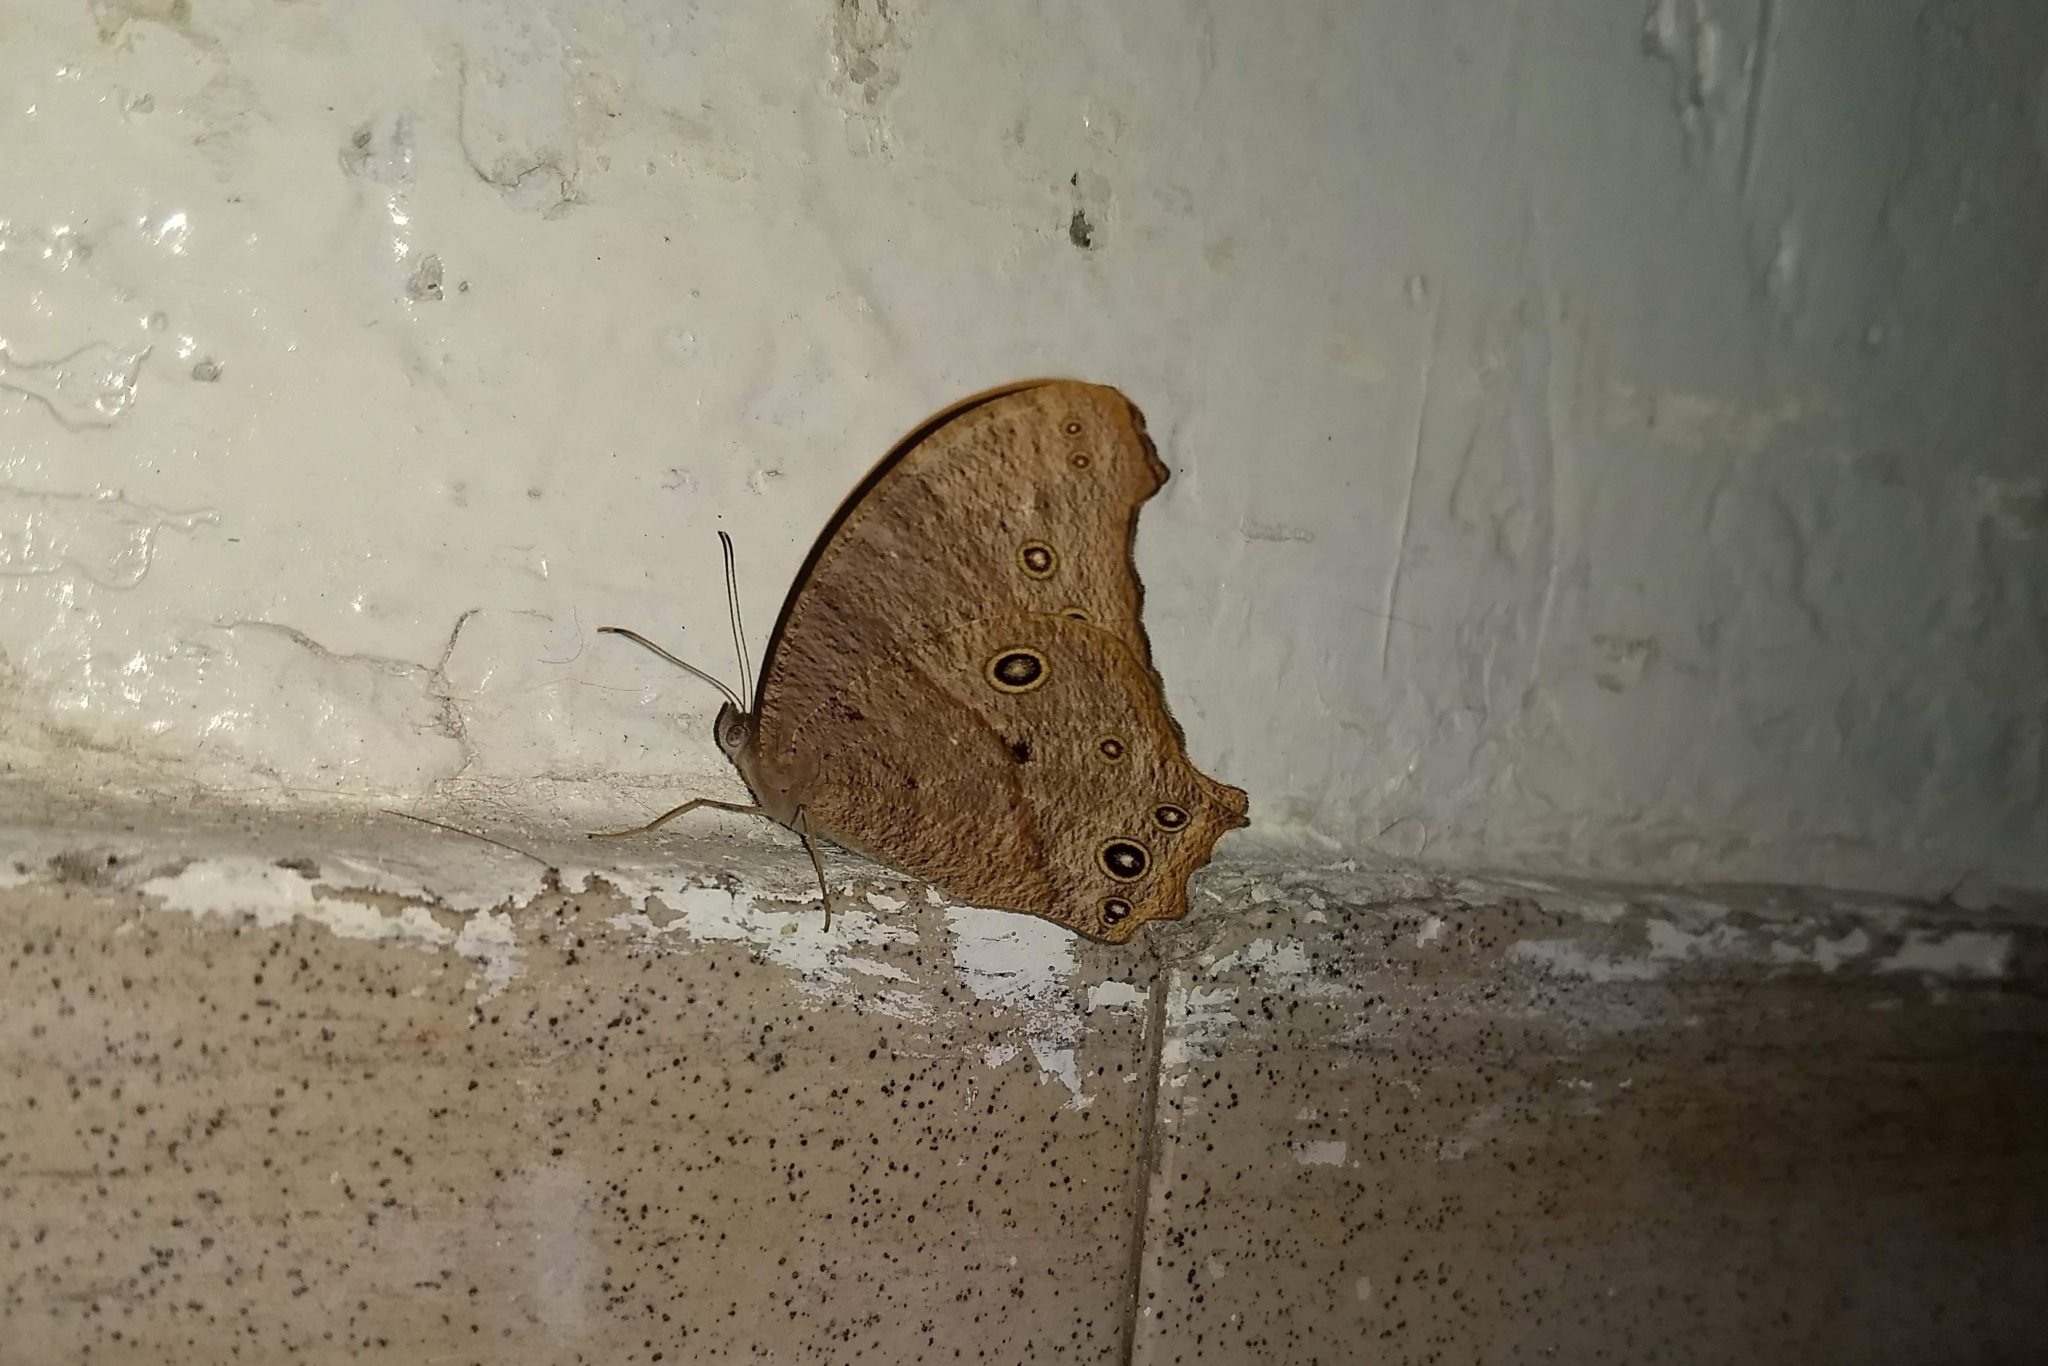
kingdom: Animalia
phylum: Arthropoda
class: Insecta
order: Lepidoptera
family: Nymphalidae
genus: Melanitis
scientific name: Melanitis leda
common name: Twilight brown
